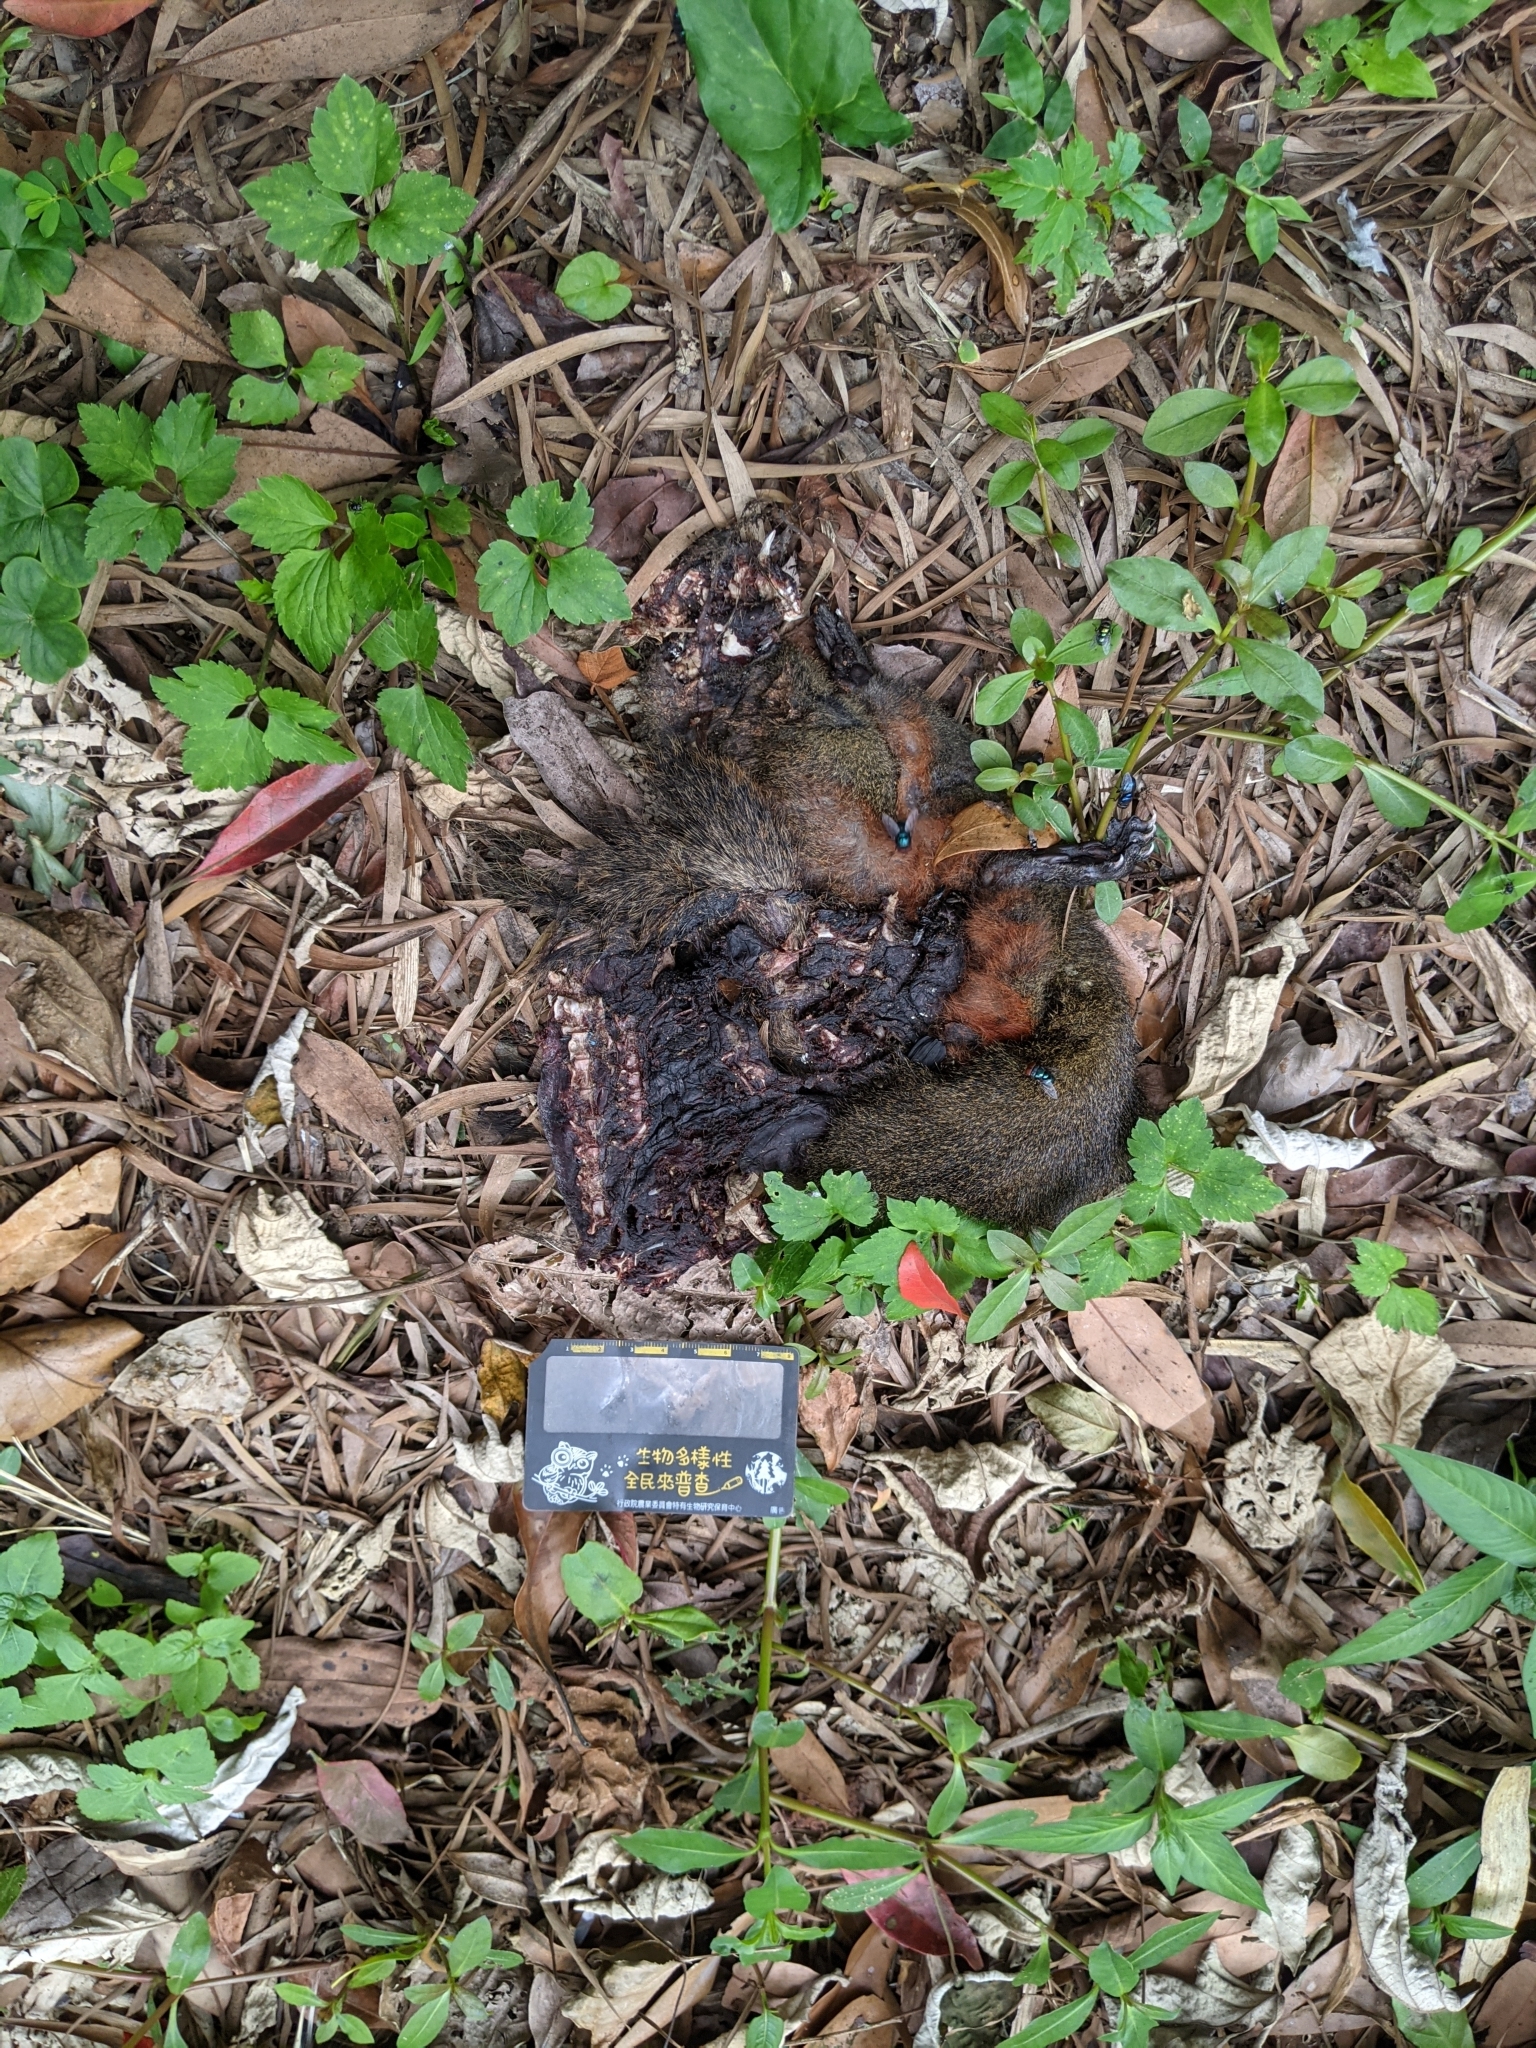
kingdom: Animalia
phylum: Chordata
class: Mammalia
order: Rodentia
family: Sciuridae
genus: Callosciurus
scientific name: Callosciurus erythraeus
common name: Pallas's squirrel
